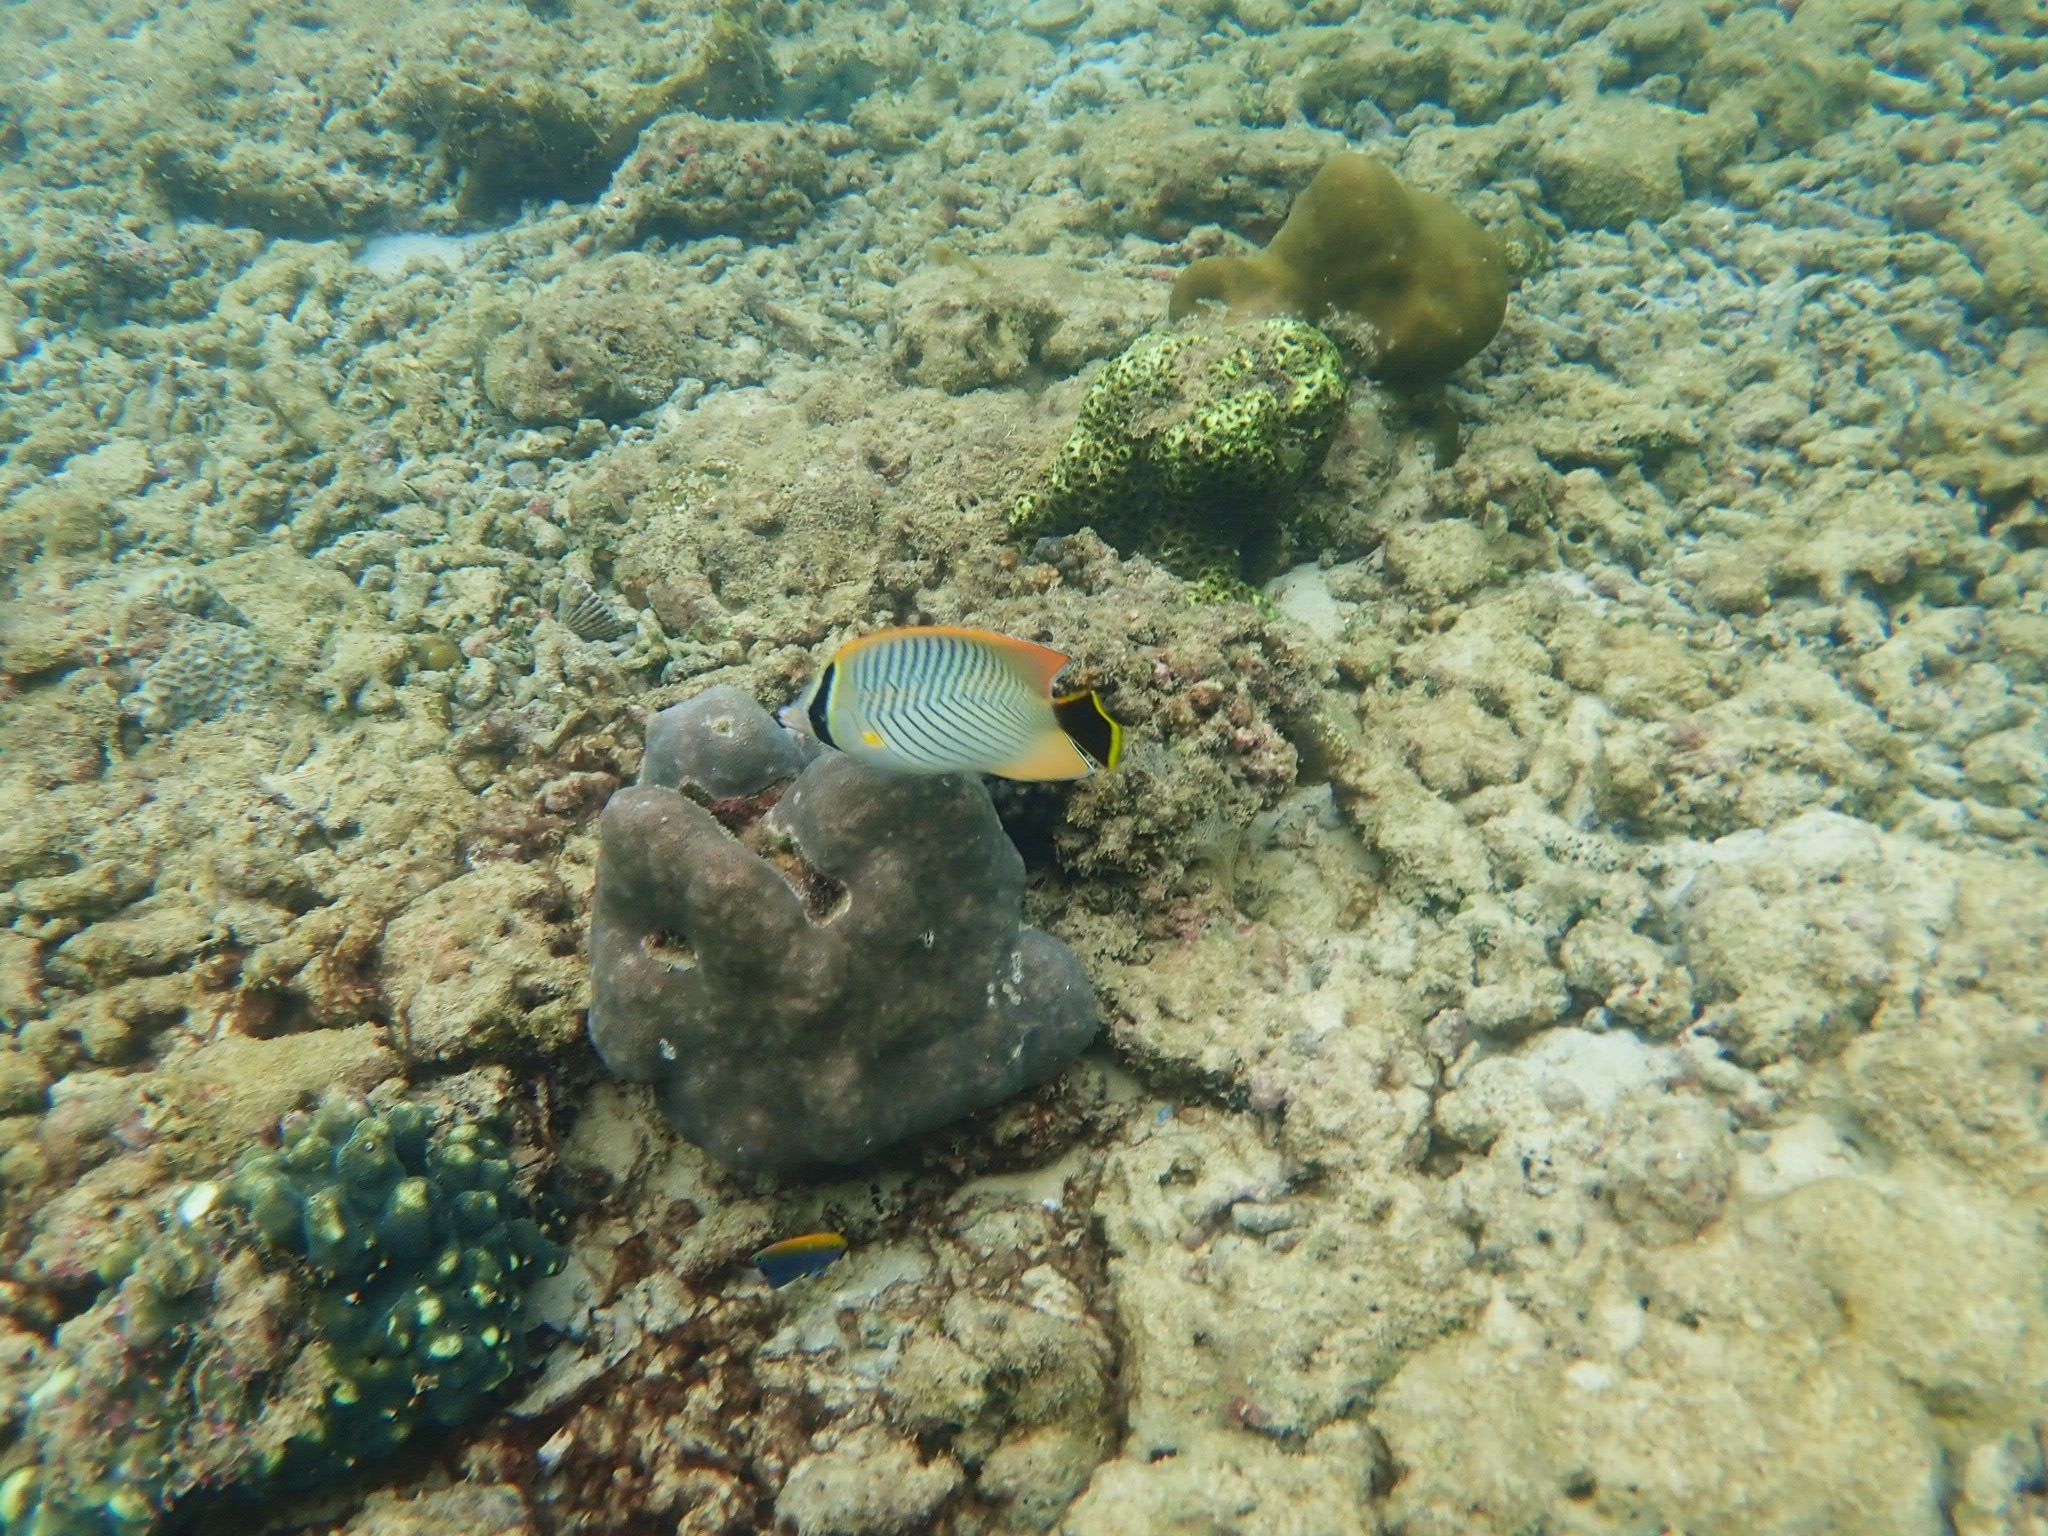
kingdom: Animalia
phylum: Chordata
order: Perciformes
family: Chaetodontidae
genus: Chaetodon
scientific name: Chaetodon trifascialis
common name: Chevroned butterflyfish
